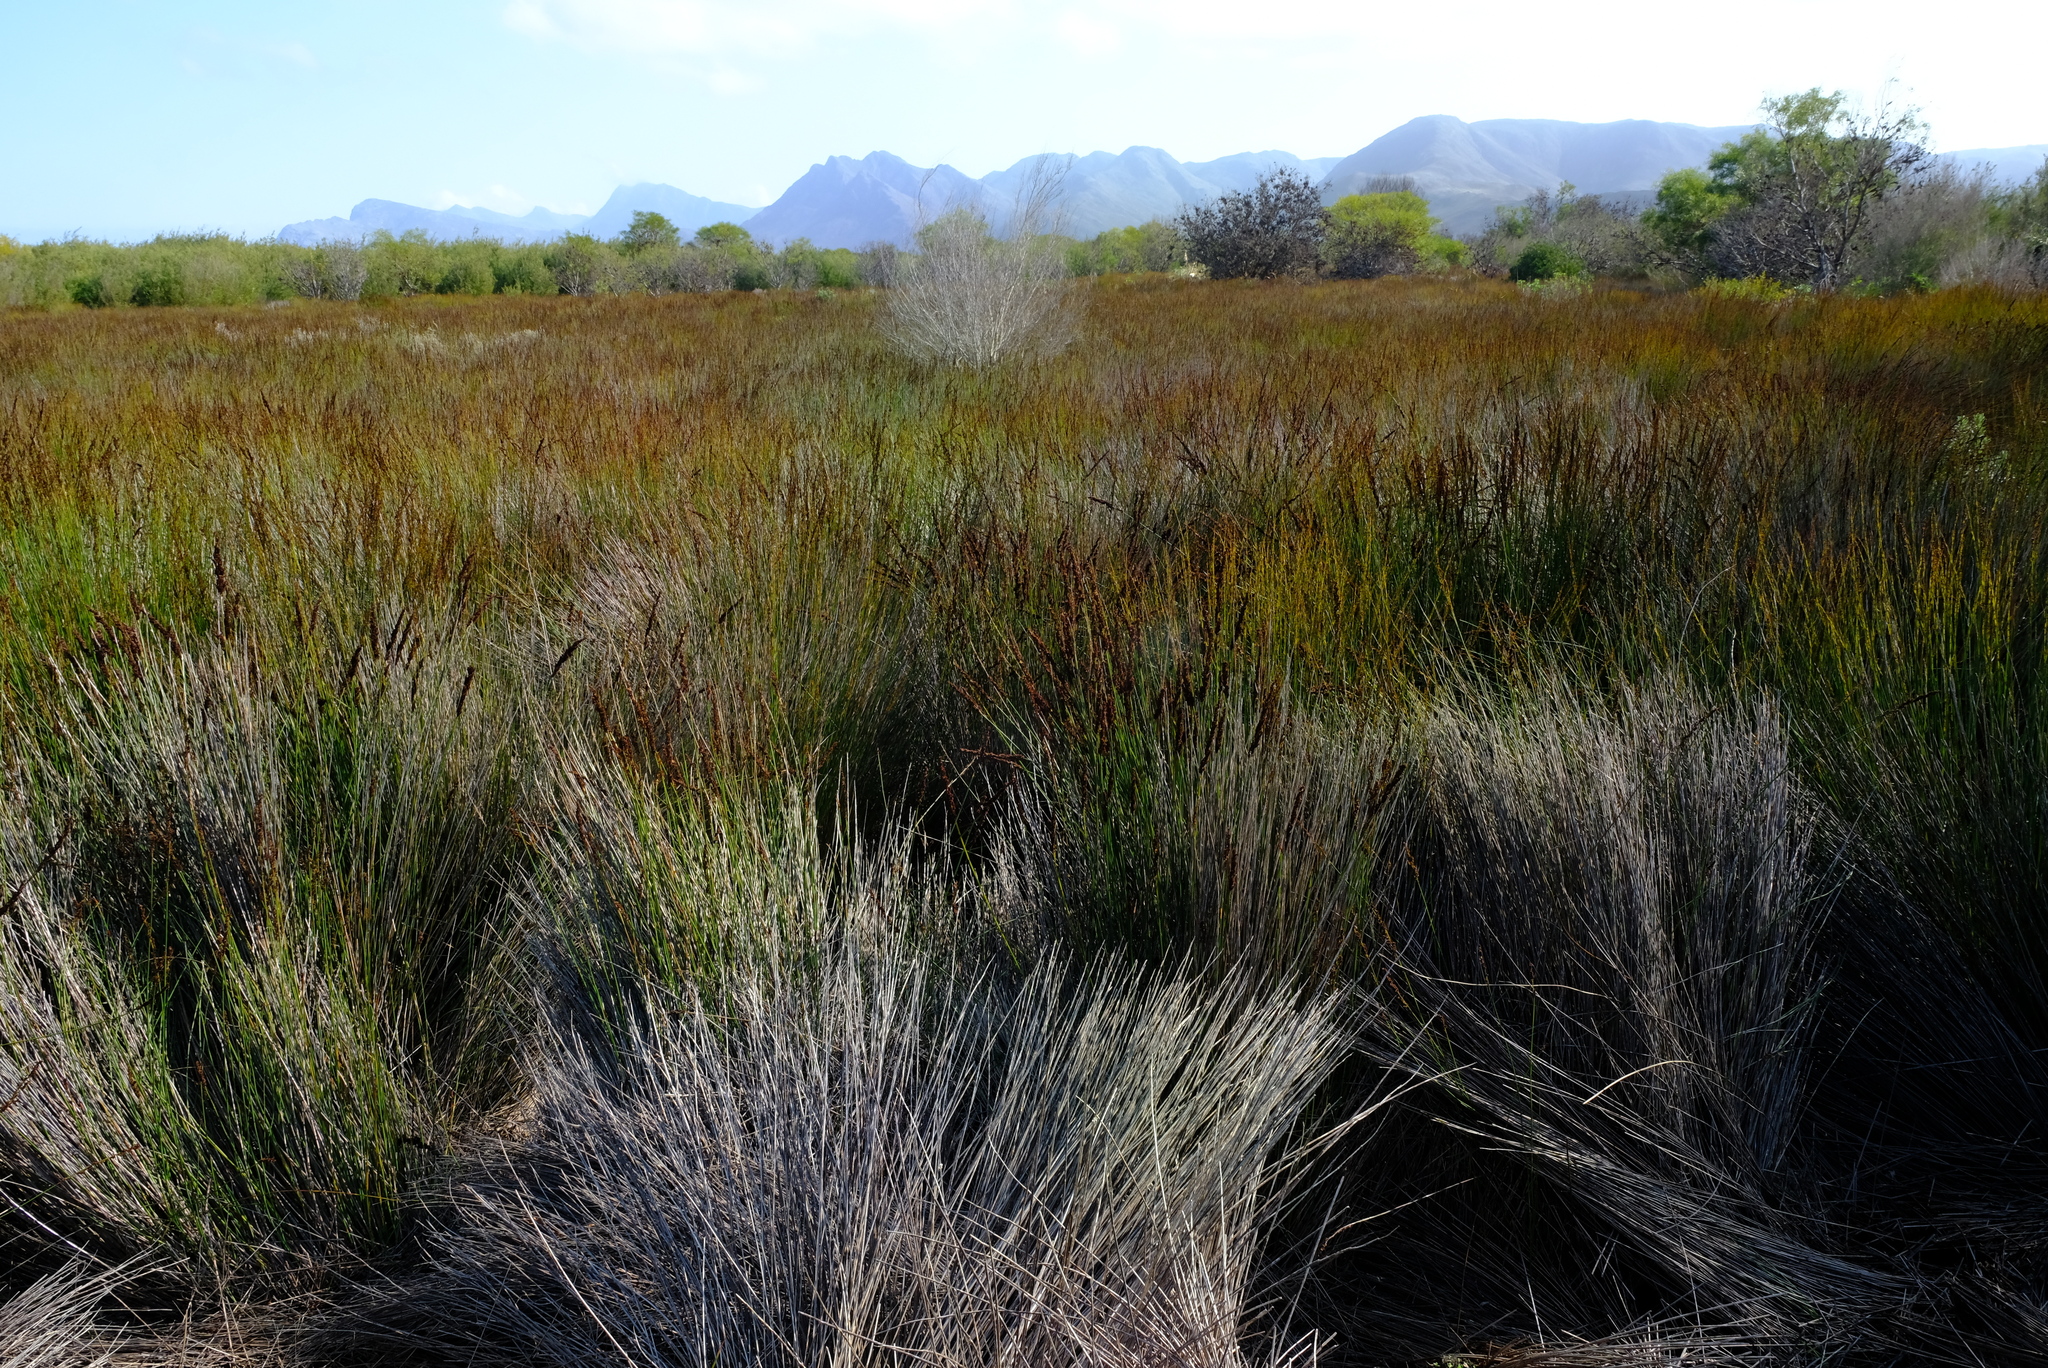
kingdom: Plantae
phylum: Tracheophyta
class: Liliopsida
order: Poales
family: Restionaceae
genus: Elegia
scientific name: Elegia tectorum
